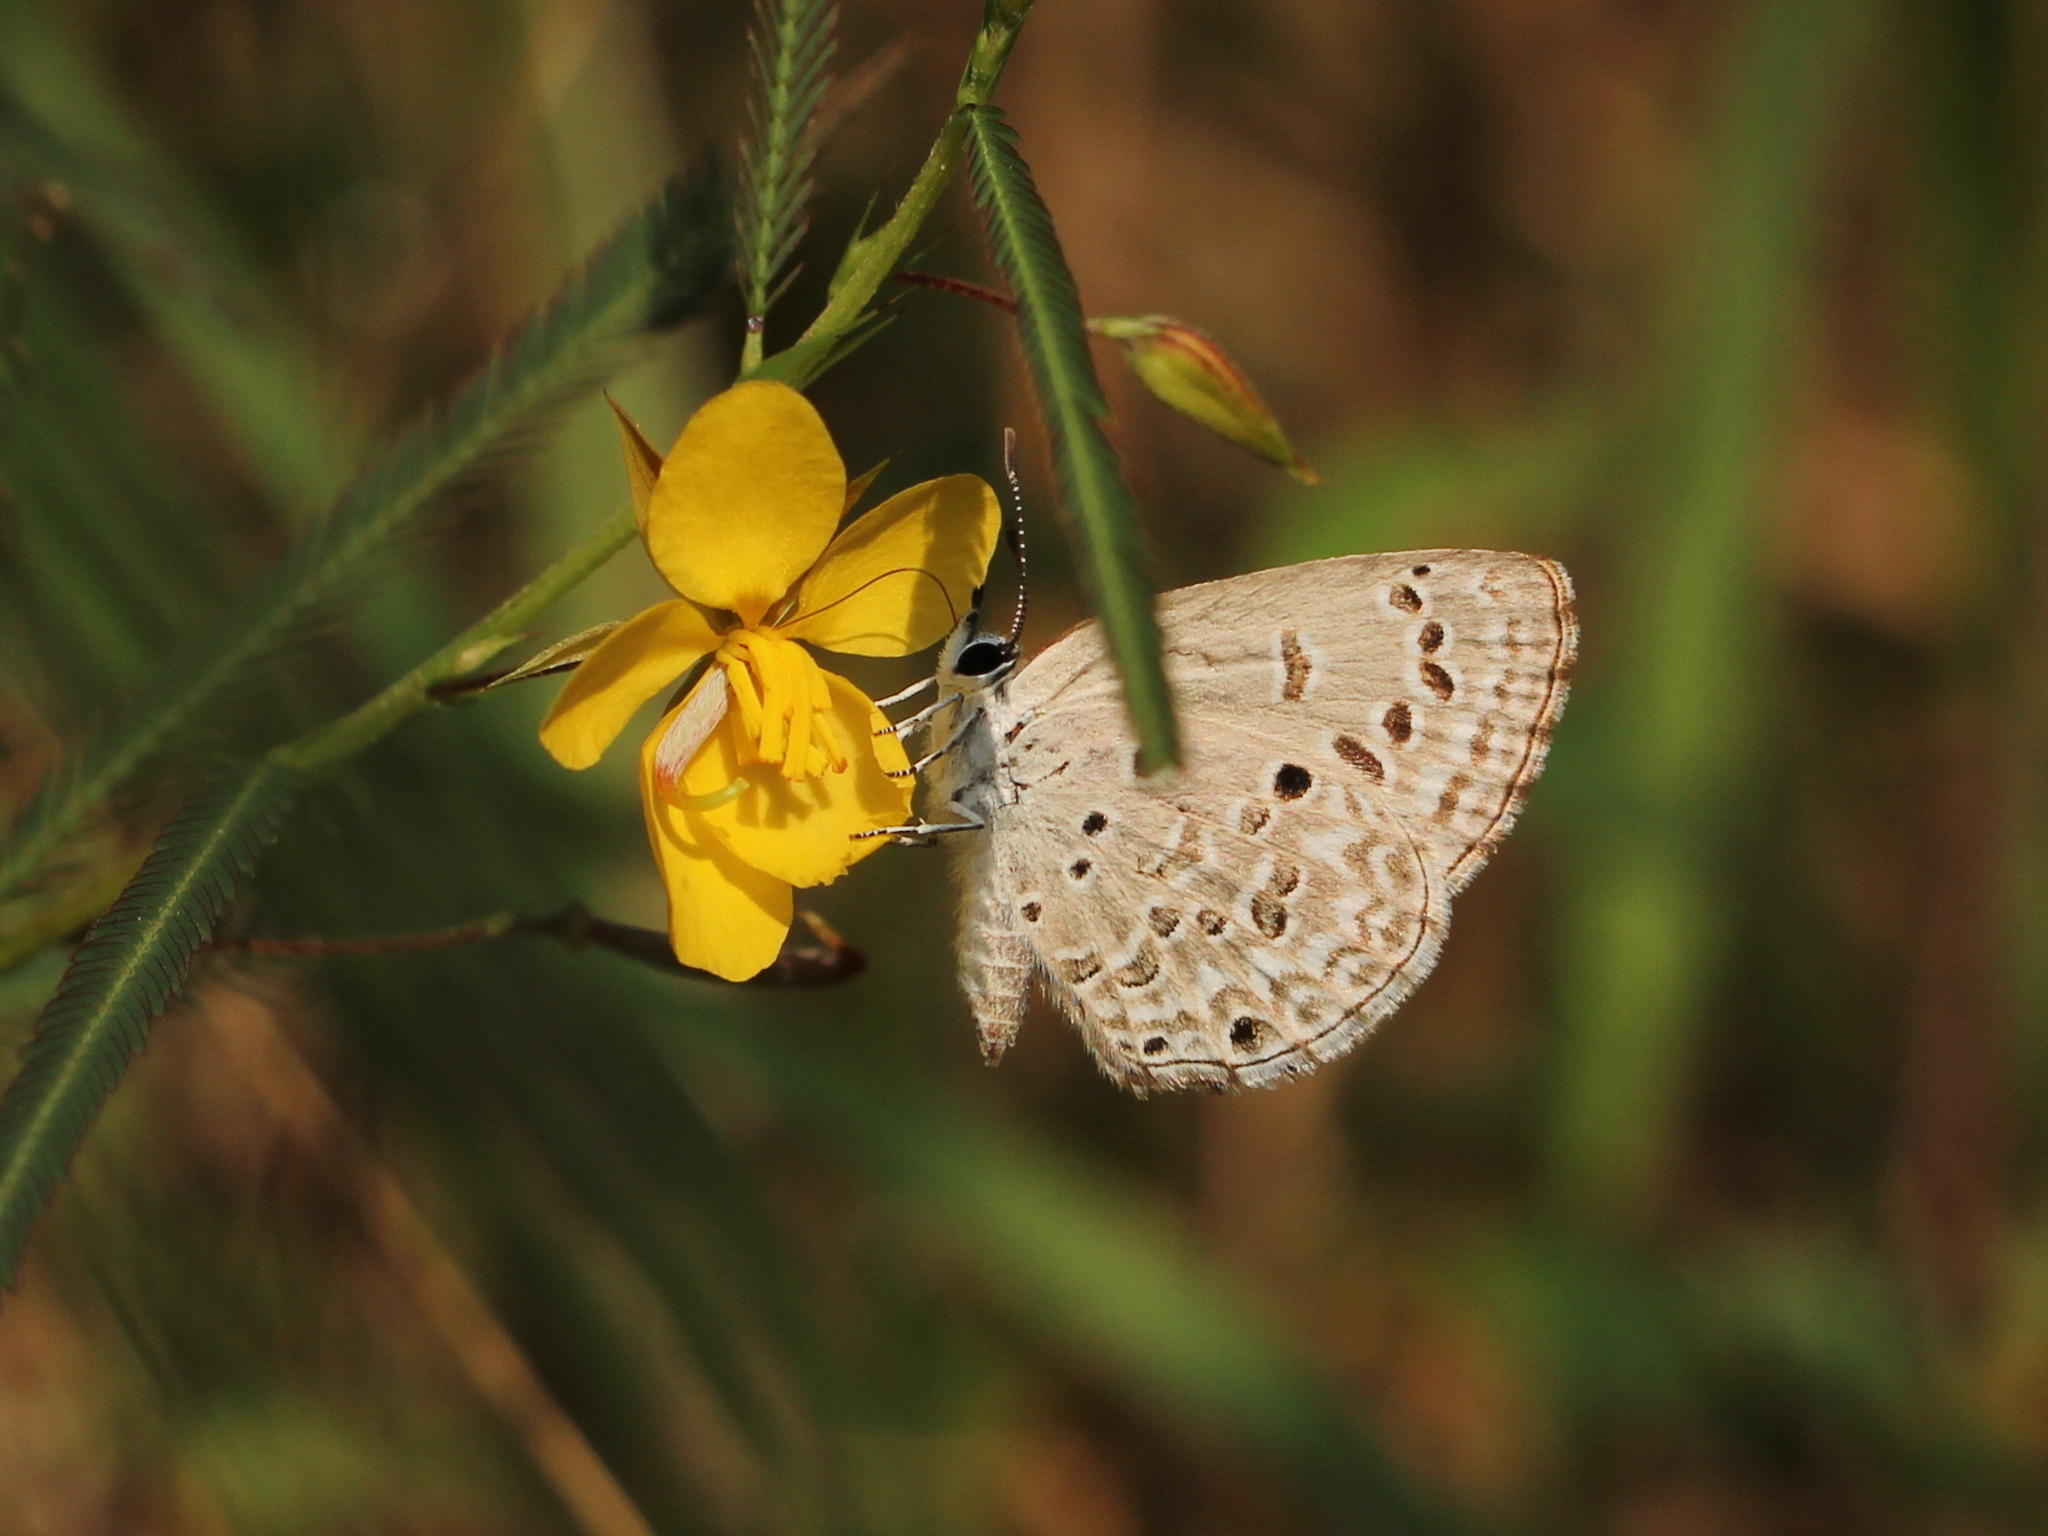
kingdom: Animalia
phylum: Arthropoda
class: Insecta
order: Lepidoptera
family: Lycaenidae
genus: Chilades
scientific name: Chilades laius
